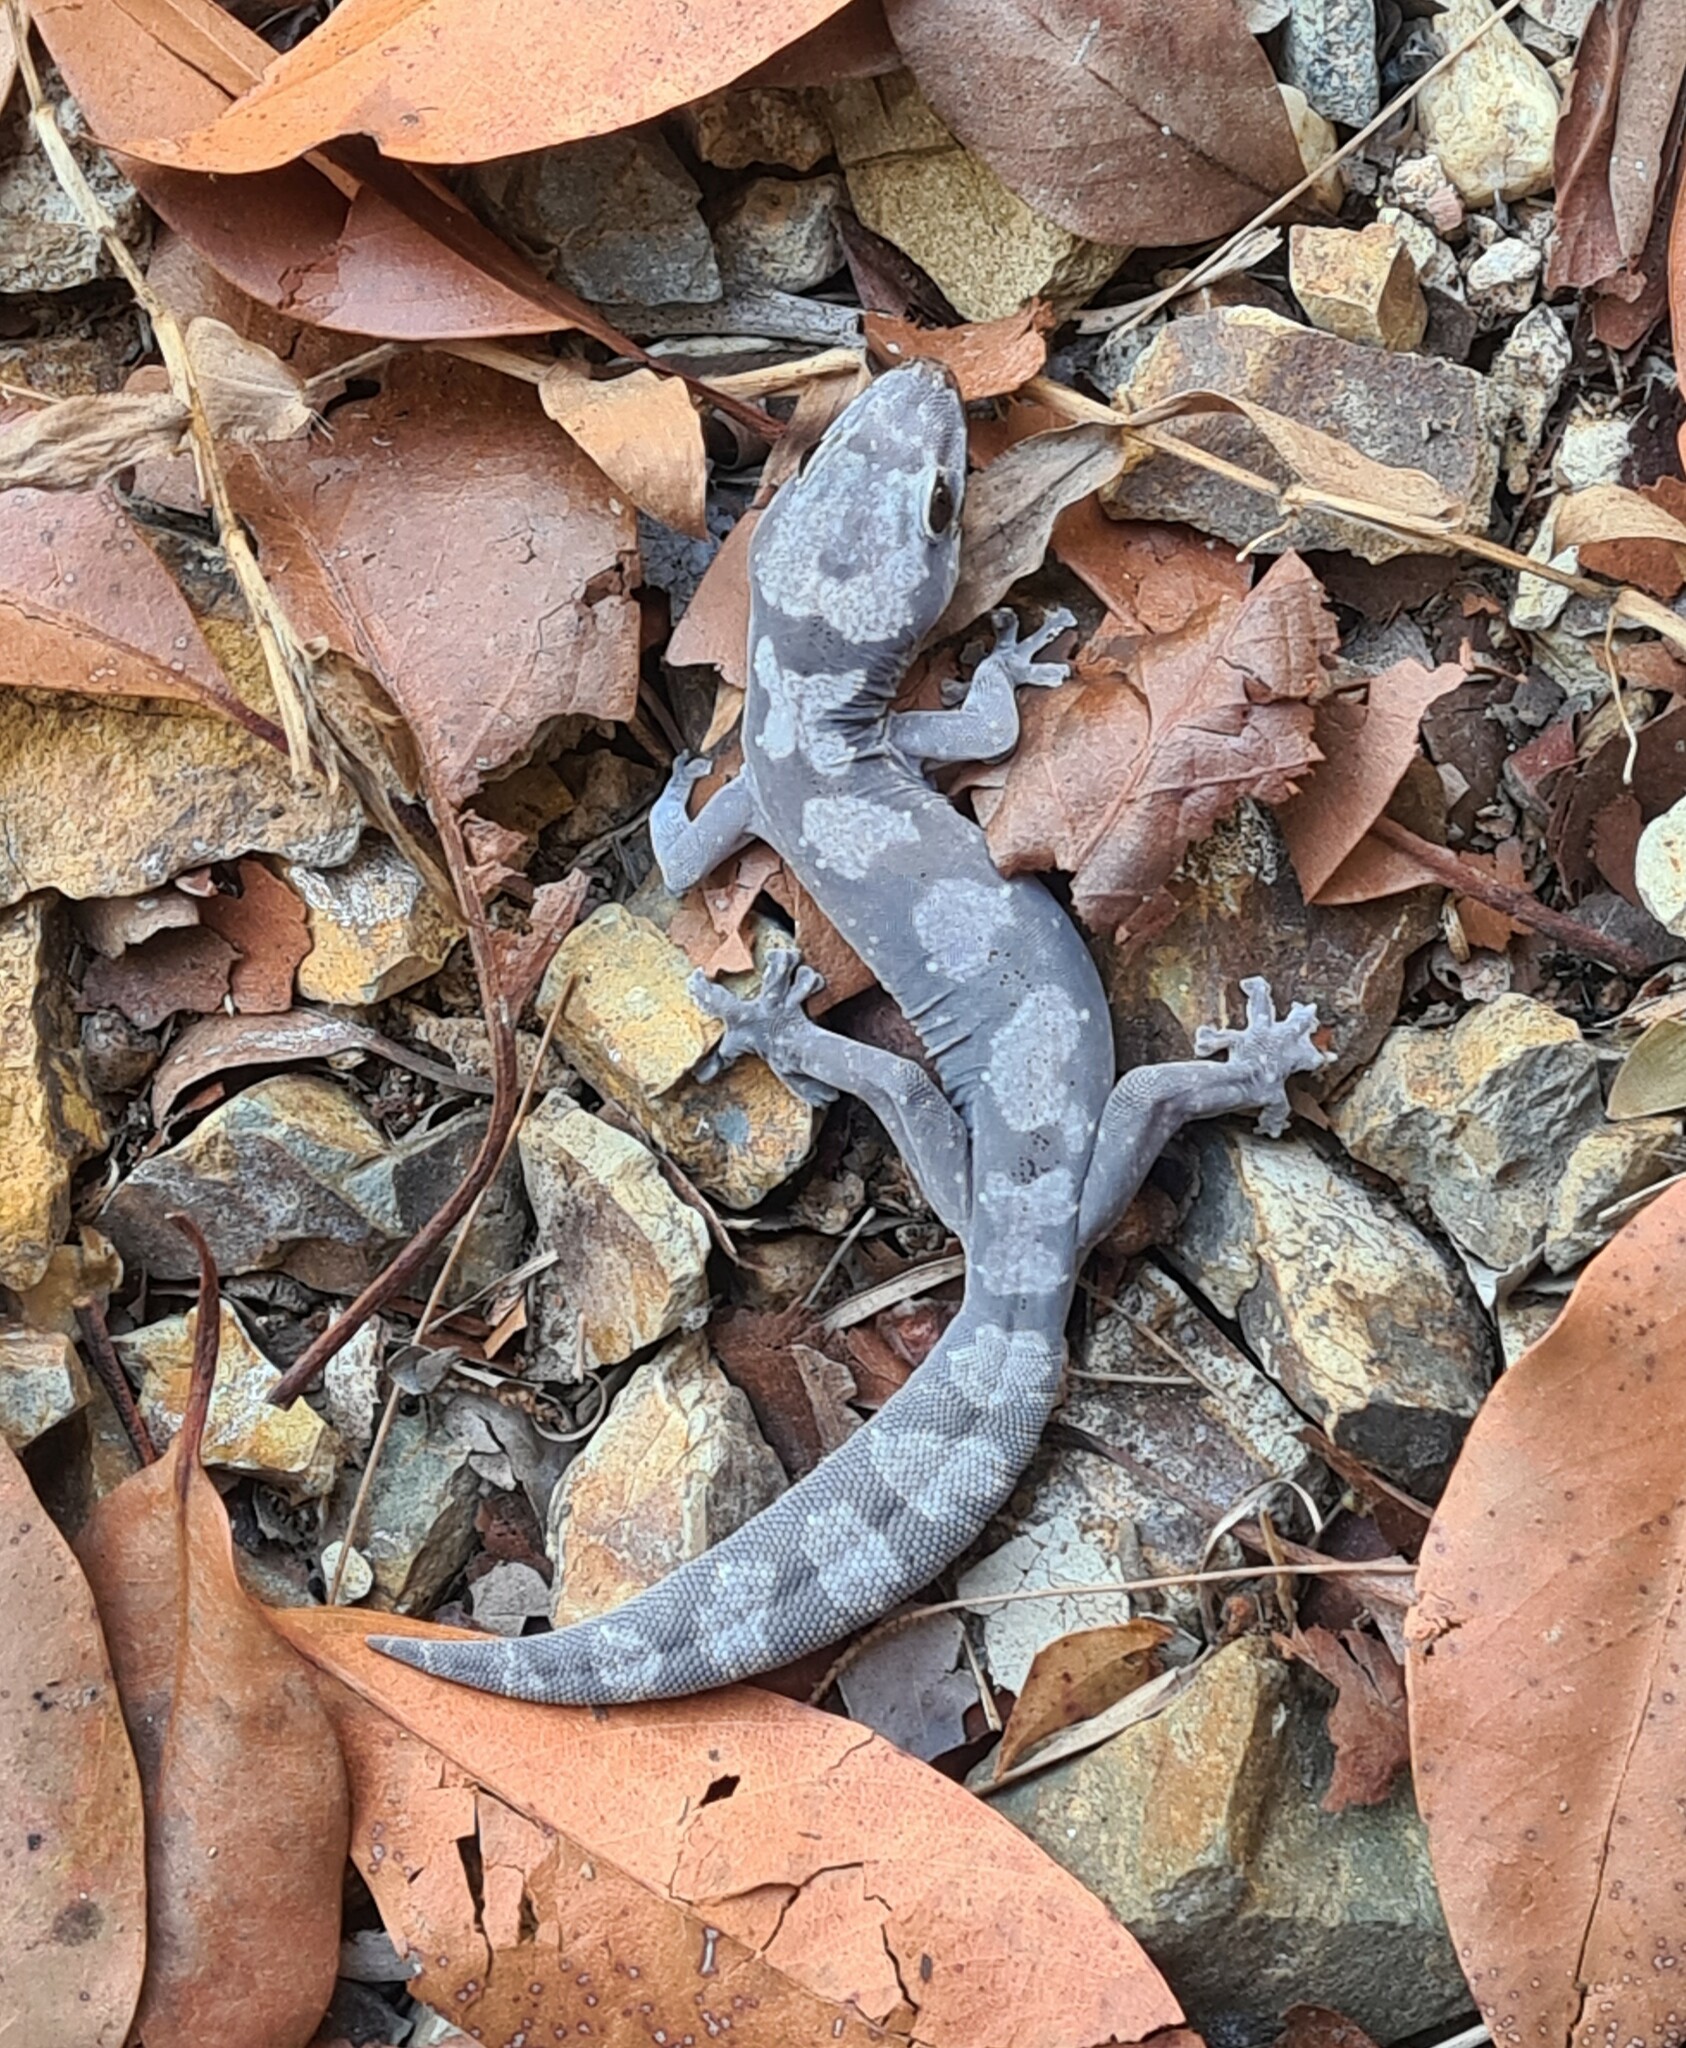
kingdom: Animalia
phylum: Chordata
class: Squamata
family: Diplodactylidae
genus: Nebulifera
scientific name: Nebulifera robusta
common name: Robust gecko
